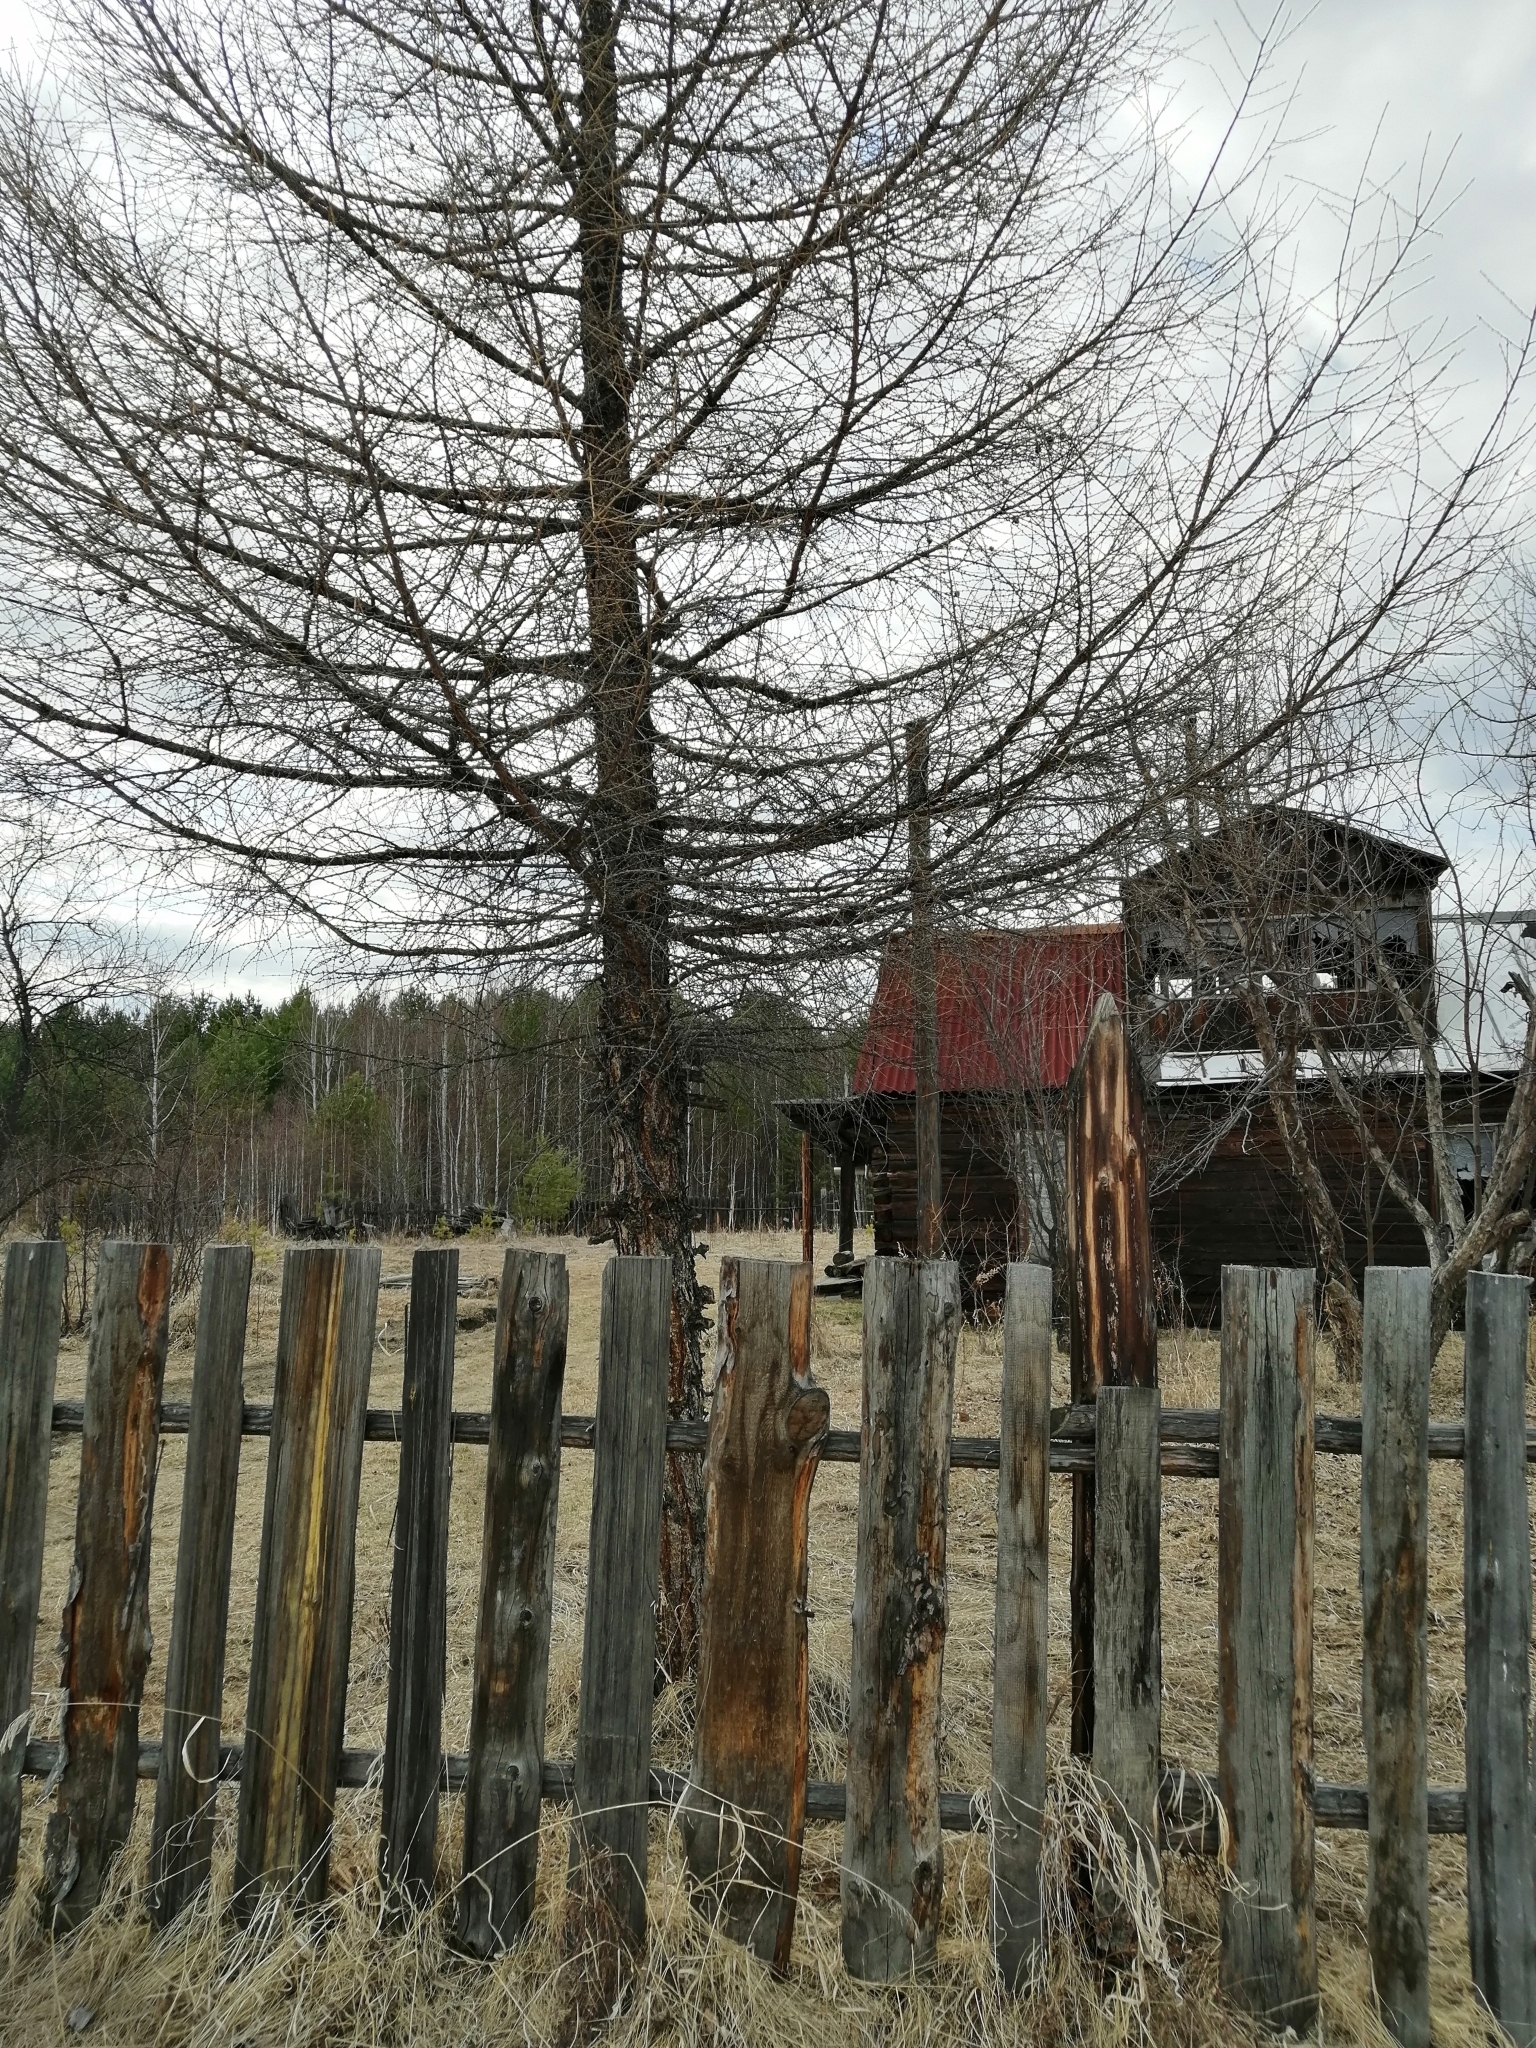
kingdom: Plantae
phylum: Tracheophyta
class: Pinopsida
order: Pinales
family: Pinaceae
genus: Larix
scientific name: Larix sibirica
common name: Siberian larch
